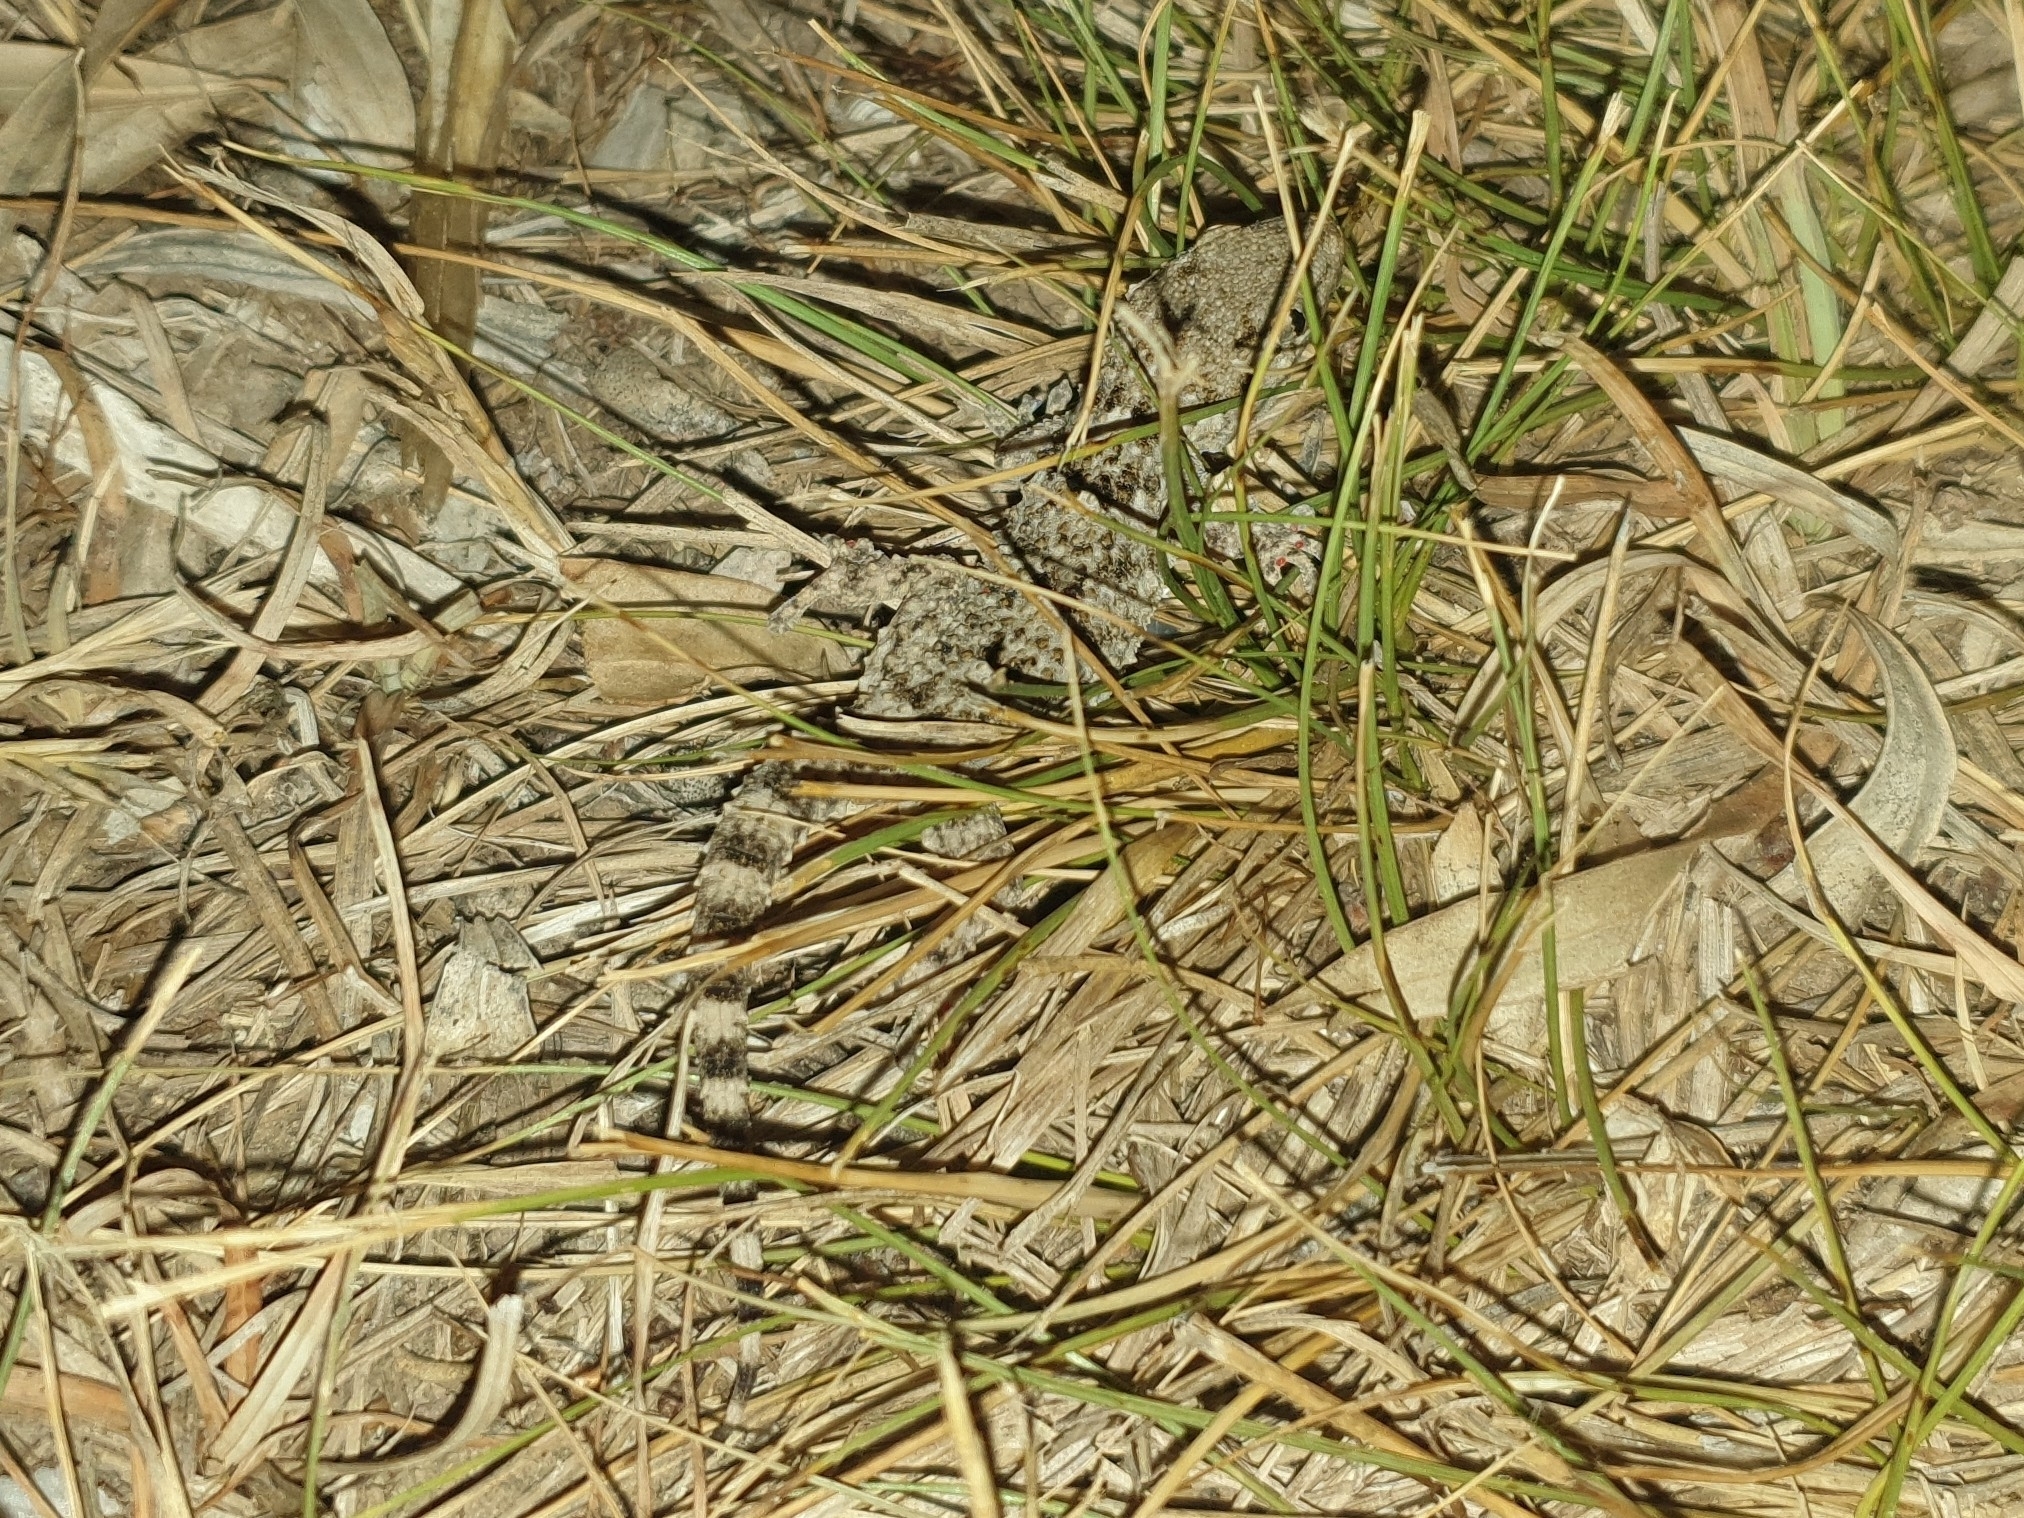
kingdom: Animalia
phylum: Chordata
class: Squamata
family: Phyllodactylidae
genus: Tarentola
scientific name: Tarentola mauritanica
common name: Moorish gecko
